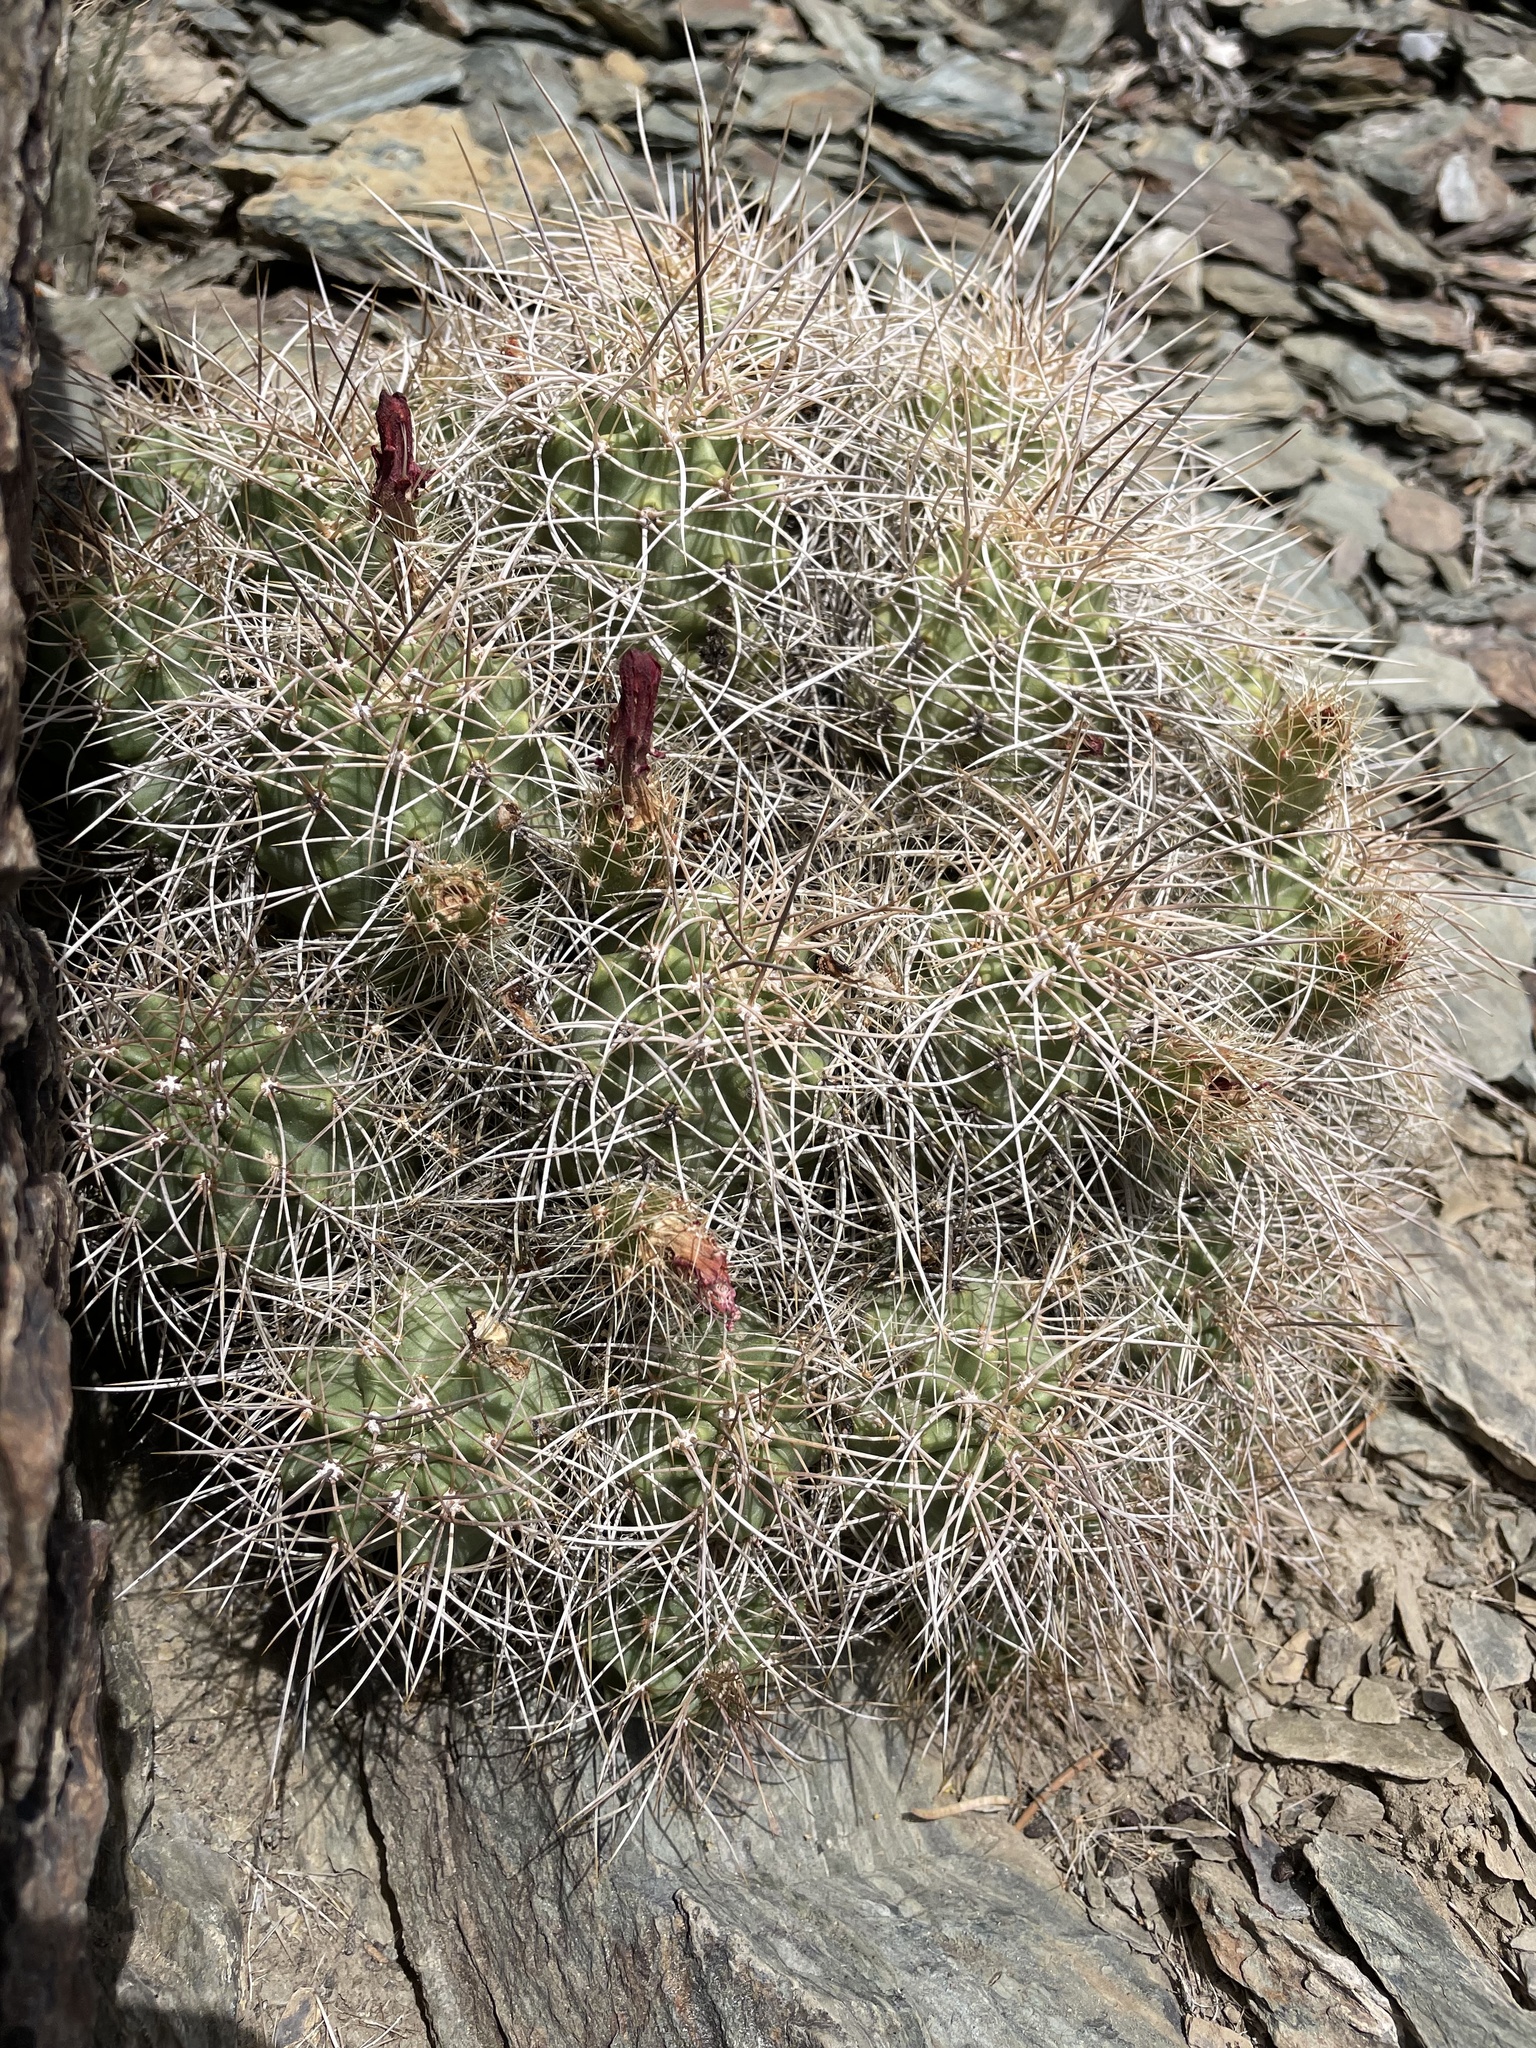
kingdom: Plantae
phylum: Tracheophyta
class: Magnoliopsida
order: Caryophyllales
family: Cactaceae
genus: Echinocereus
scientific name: Echinocereus triglochidiatus
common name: Claretcup hedgehog
